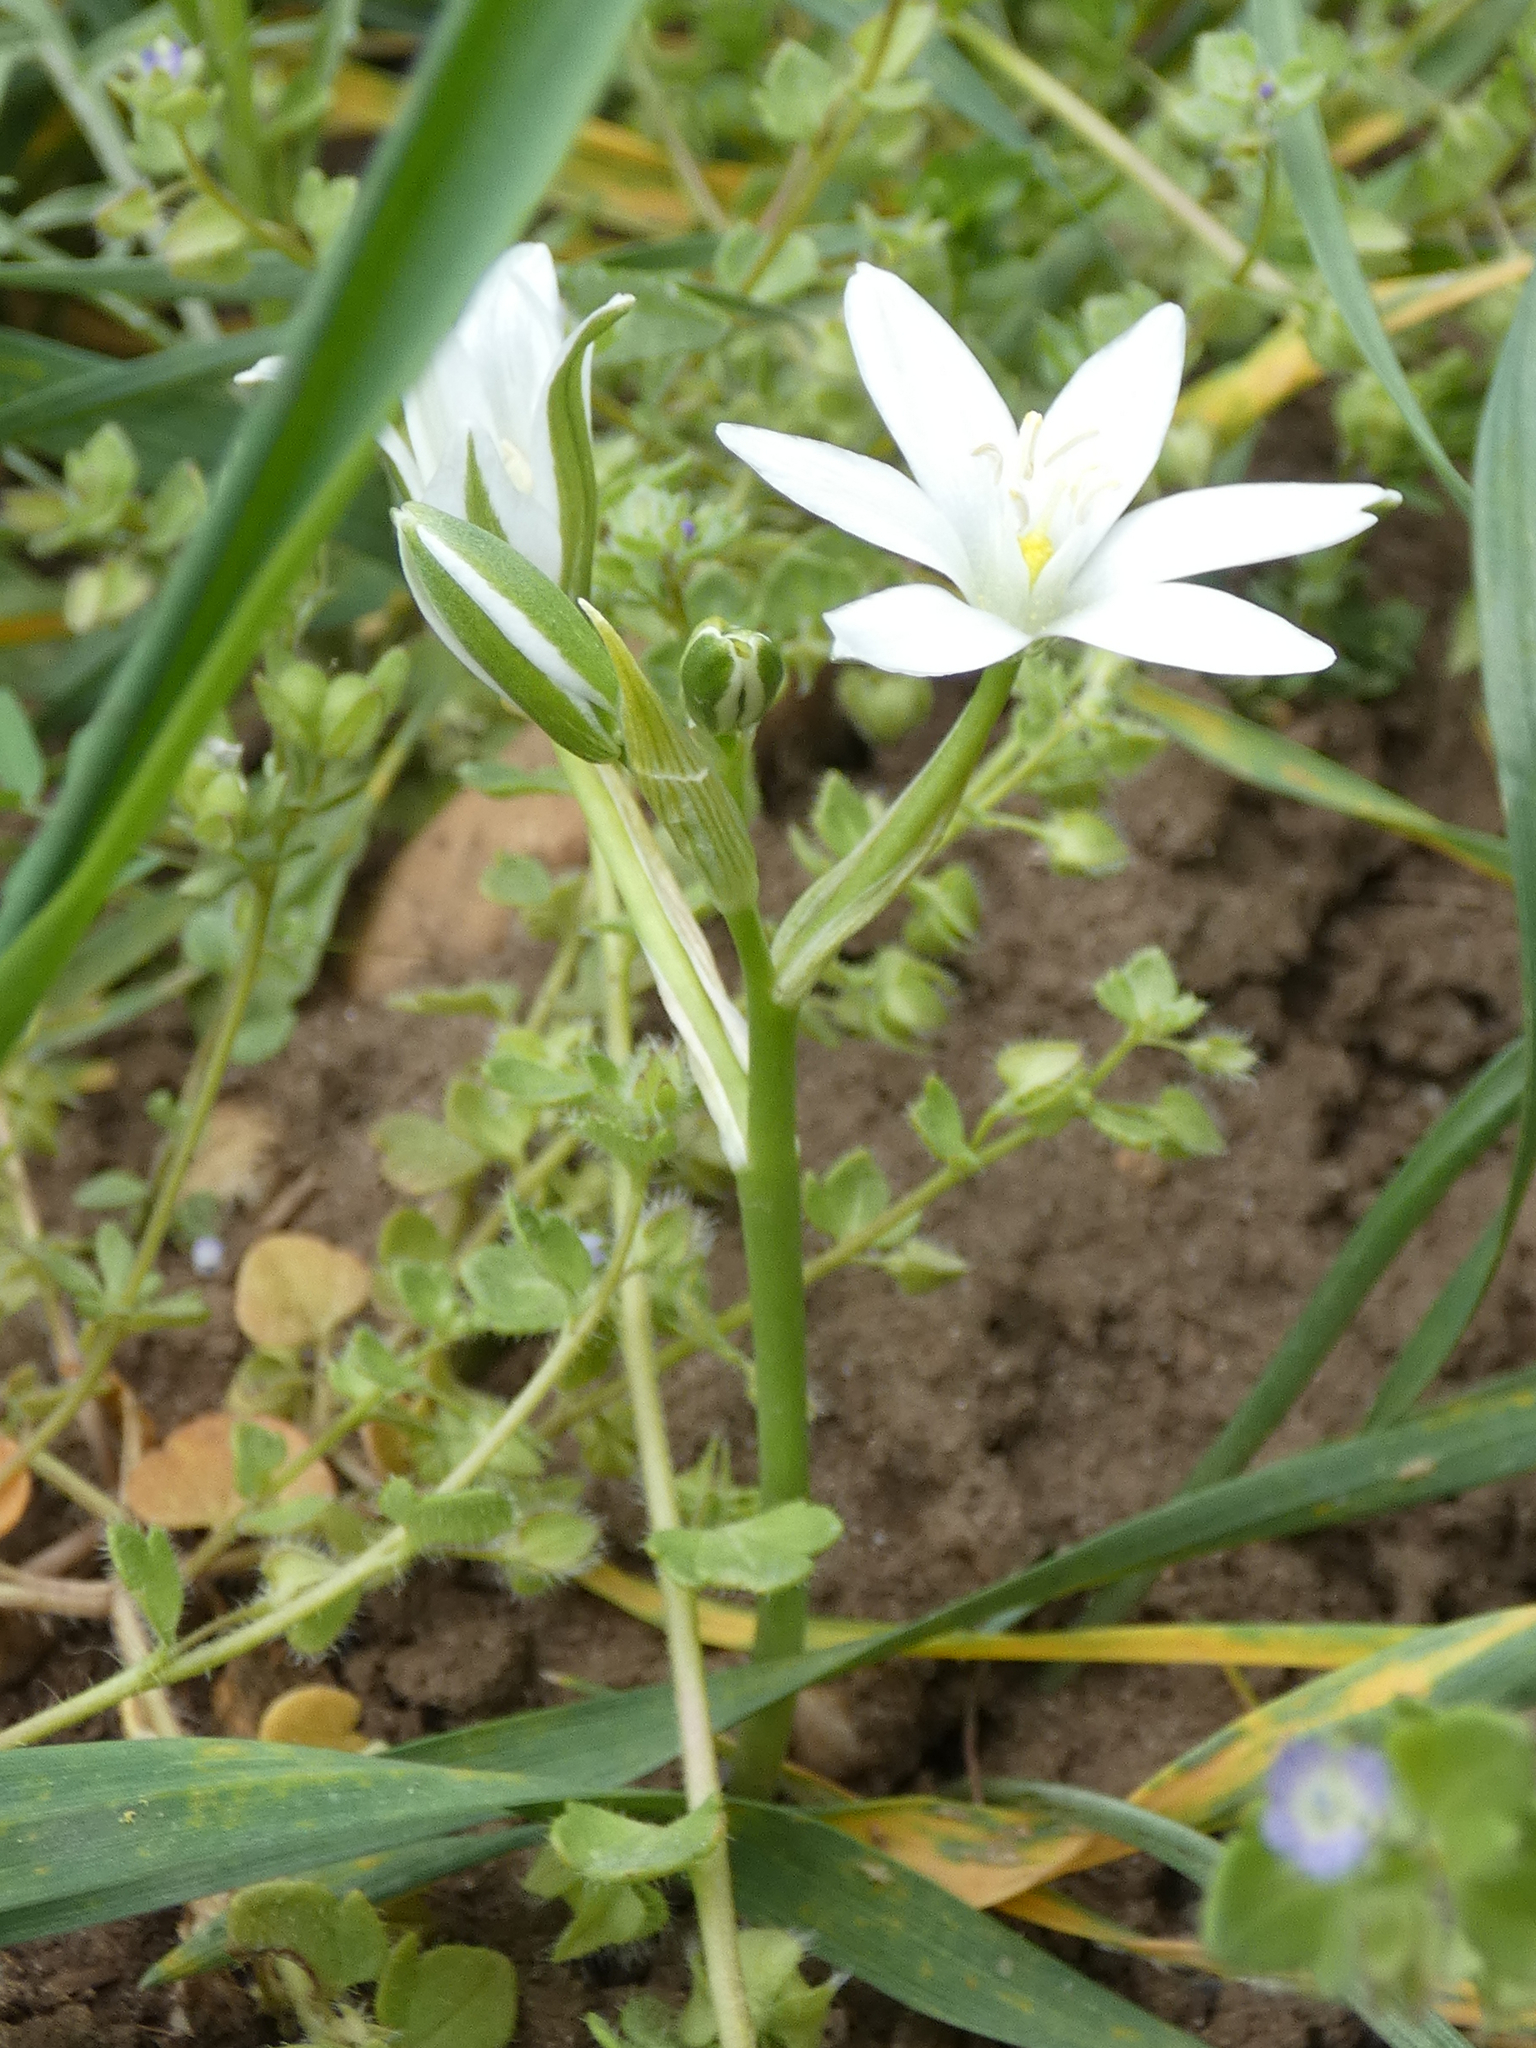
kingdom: Plantae
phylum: Tracheophyta
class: Liliopsida
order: Asparagales
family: Asparagaceae
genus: Ornithogalum
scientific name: Ornithogalum orthophyllum
